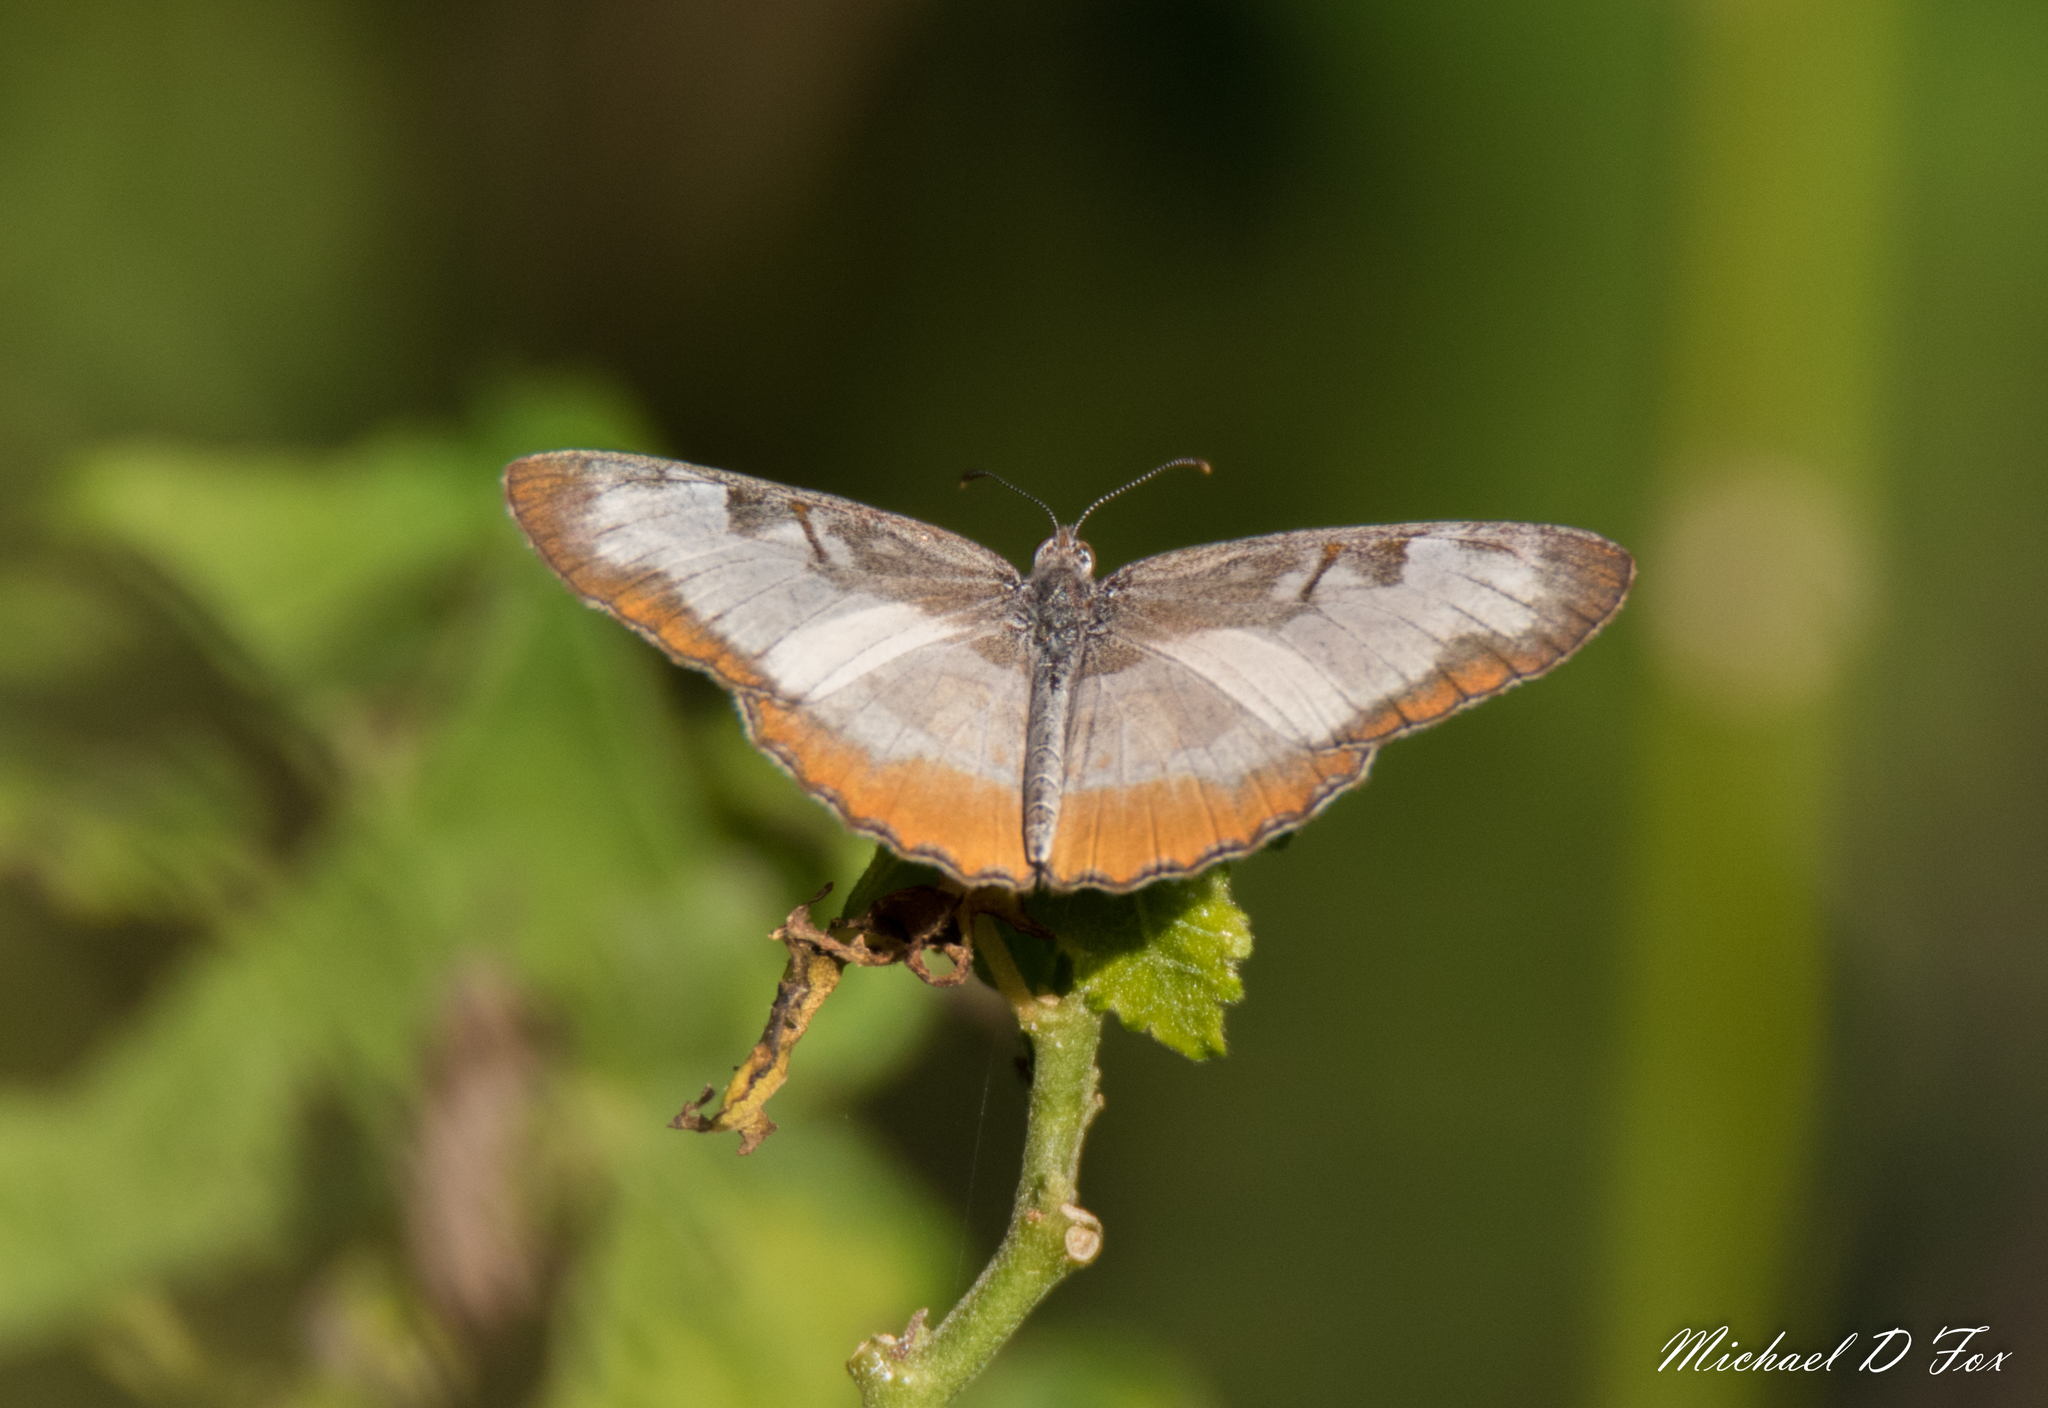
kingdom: Animalia
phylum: Arthropoda
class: Insecta
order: Lepidoptera
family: Nymphalidae
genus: Mestra
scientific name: Mestra amymone
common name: Common mestra
